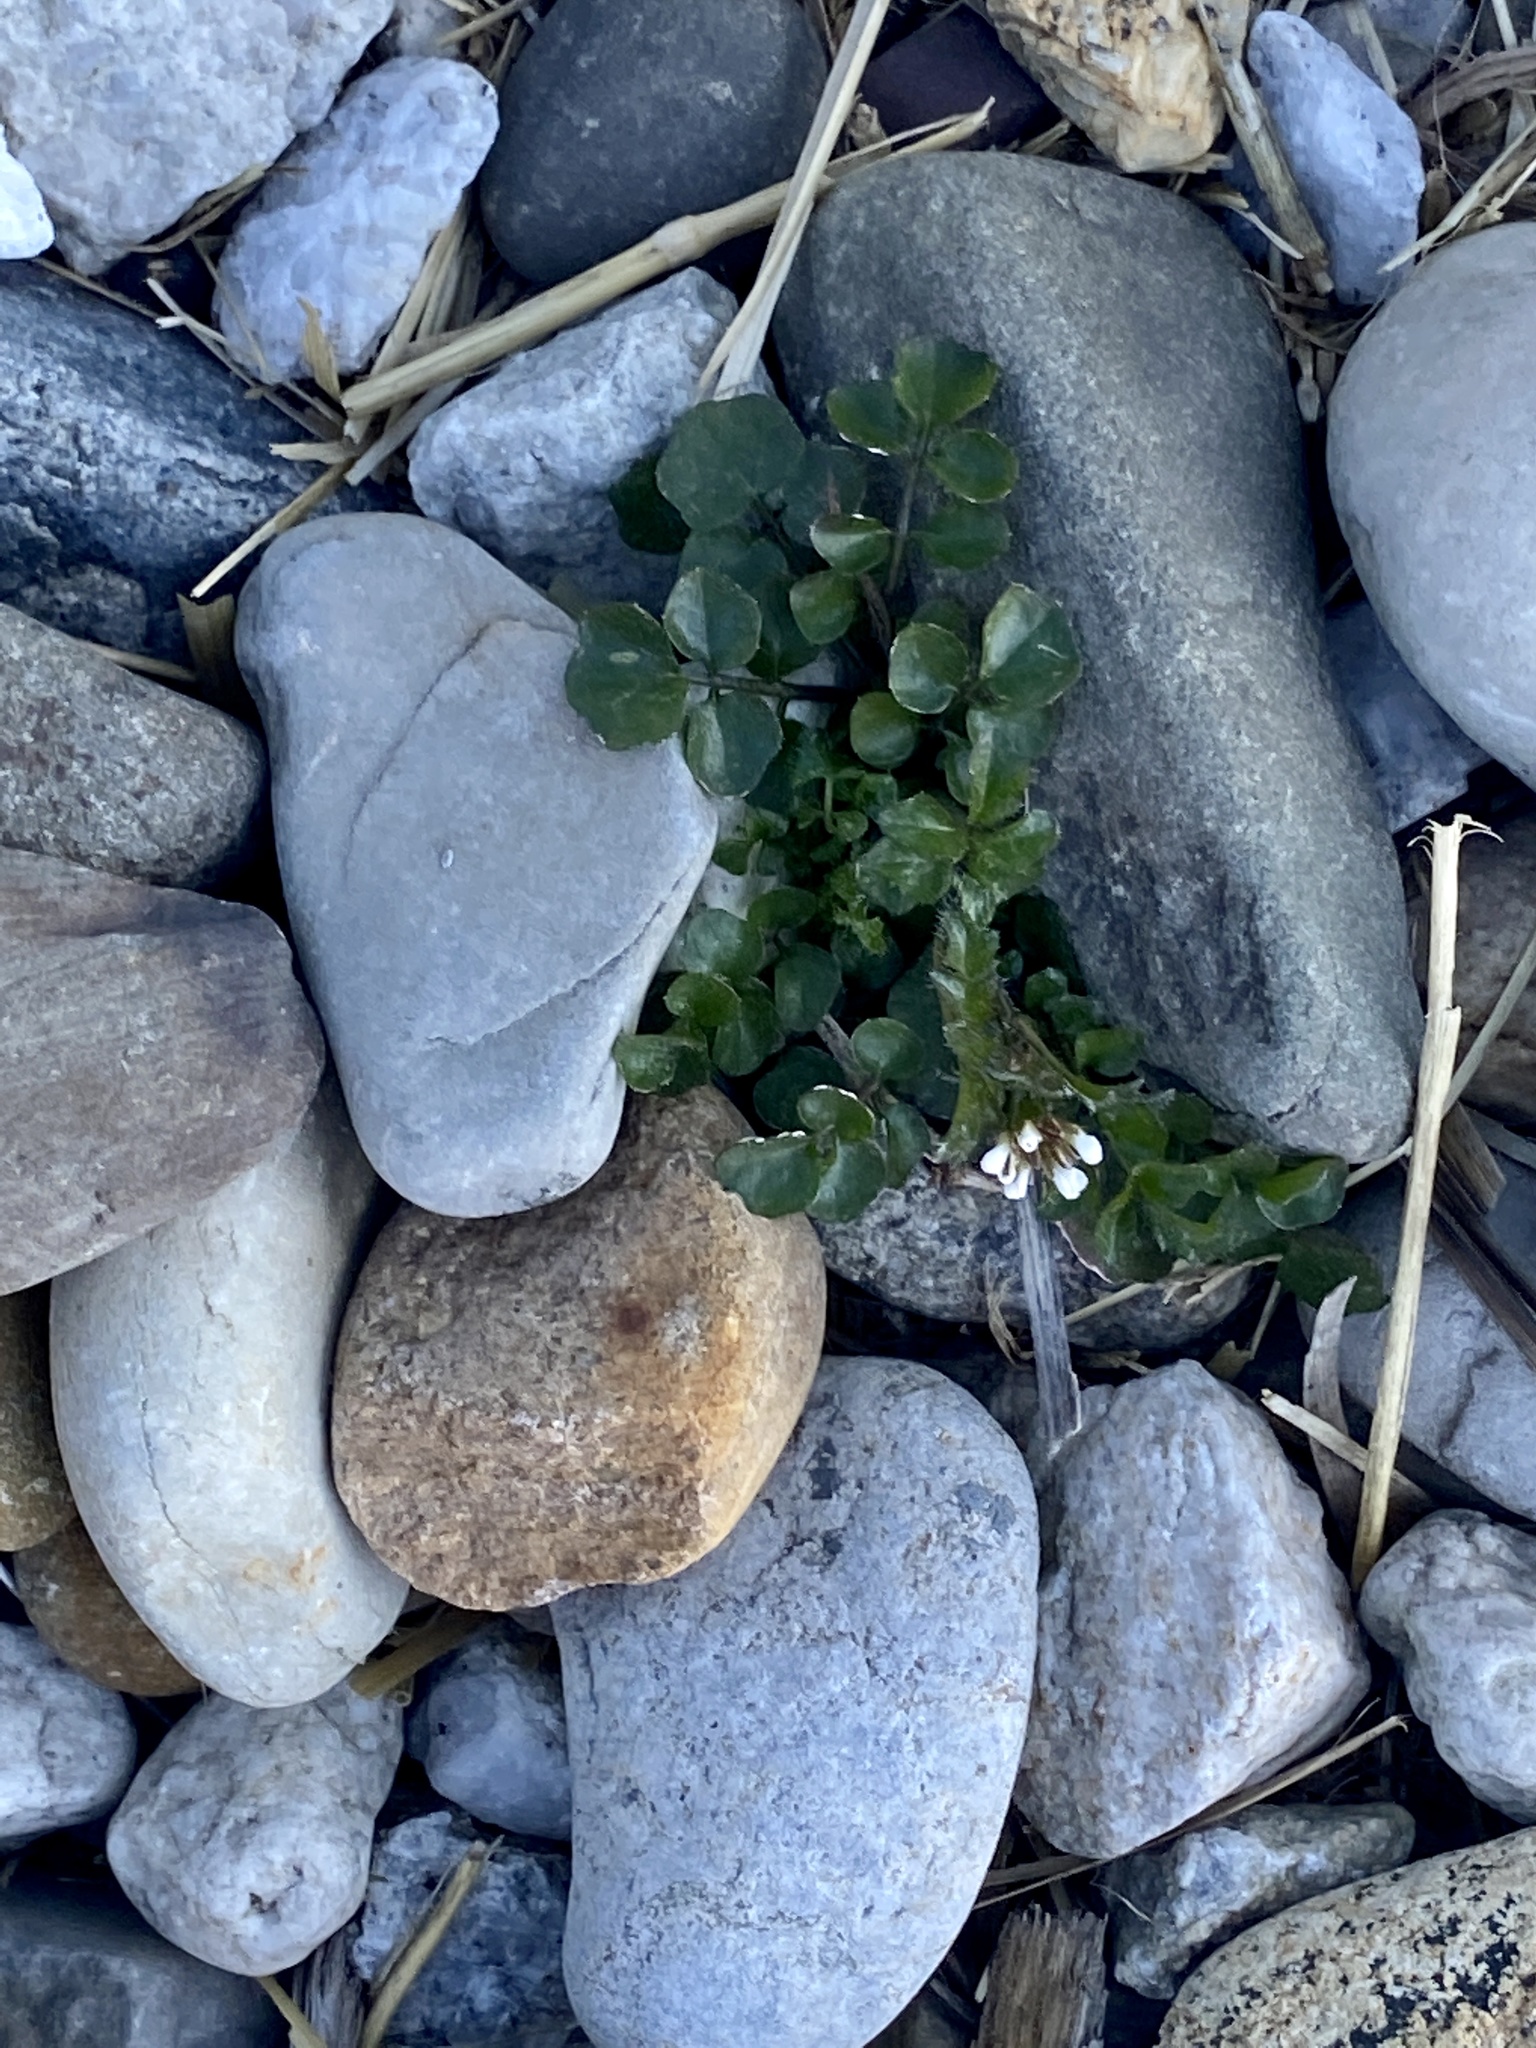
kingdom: Plantae
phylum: Tracheophyta
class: Magnoliopsida
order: Brassicales
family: Brassicaceae
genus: Cardamine
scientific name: Cardamine hirsuta
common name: Hairy bittercress
